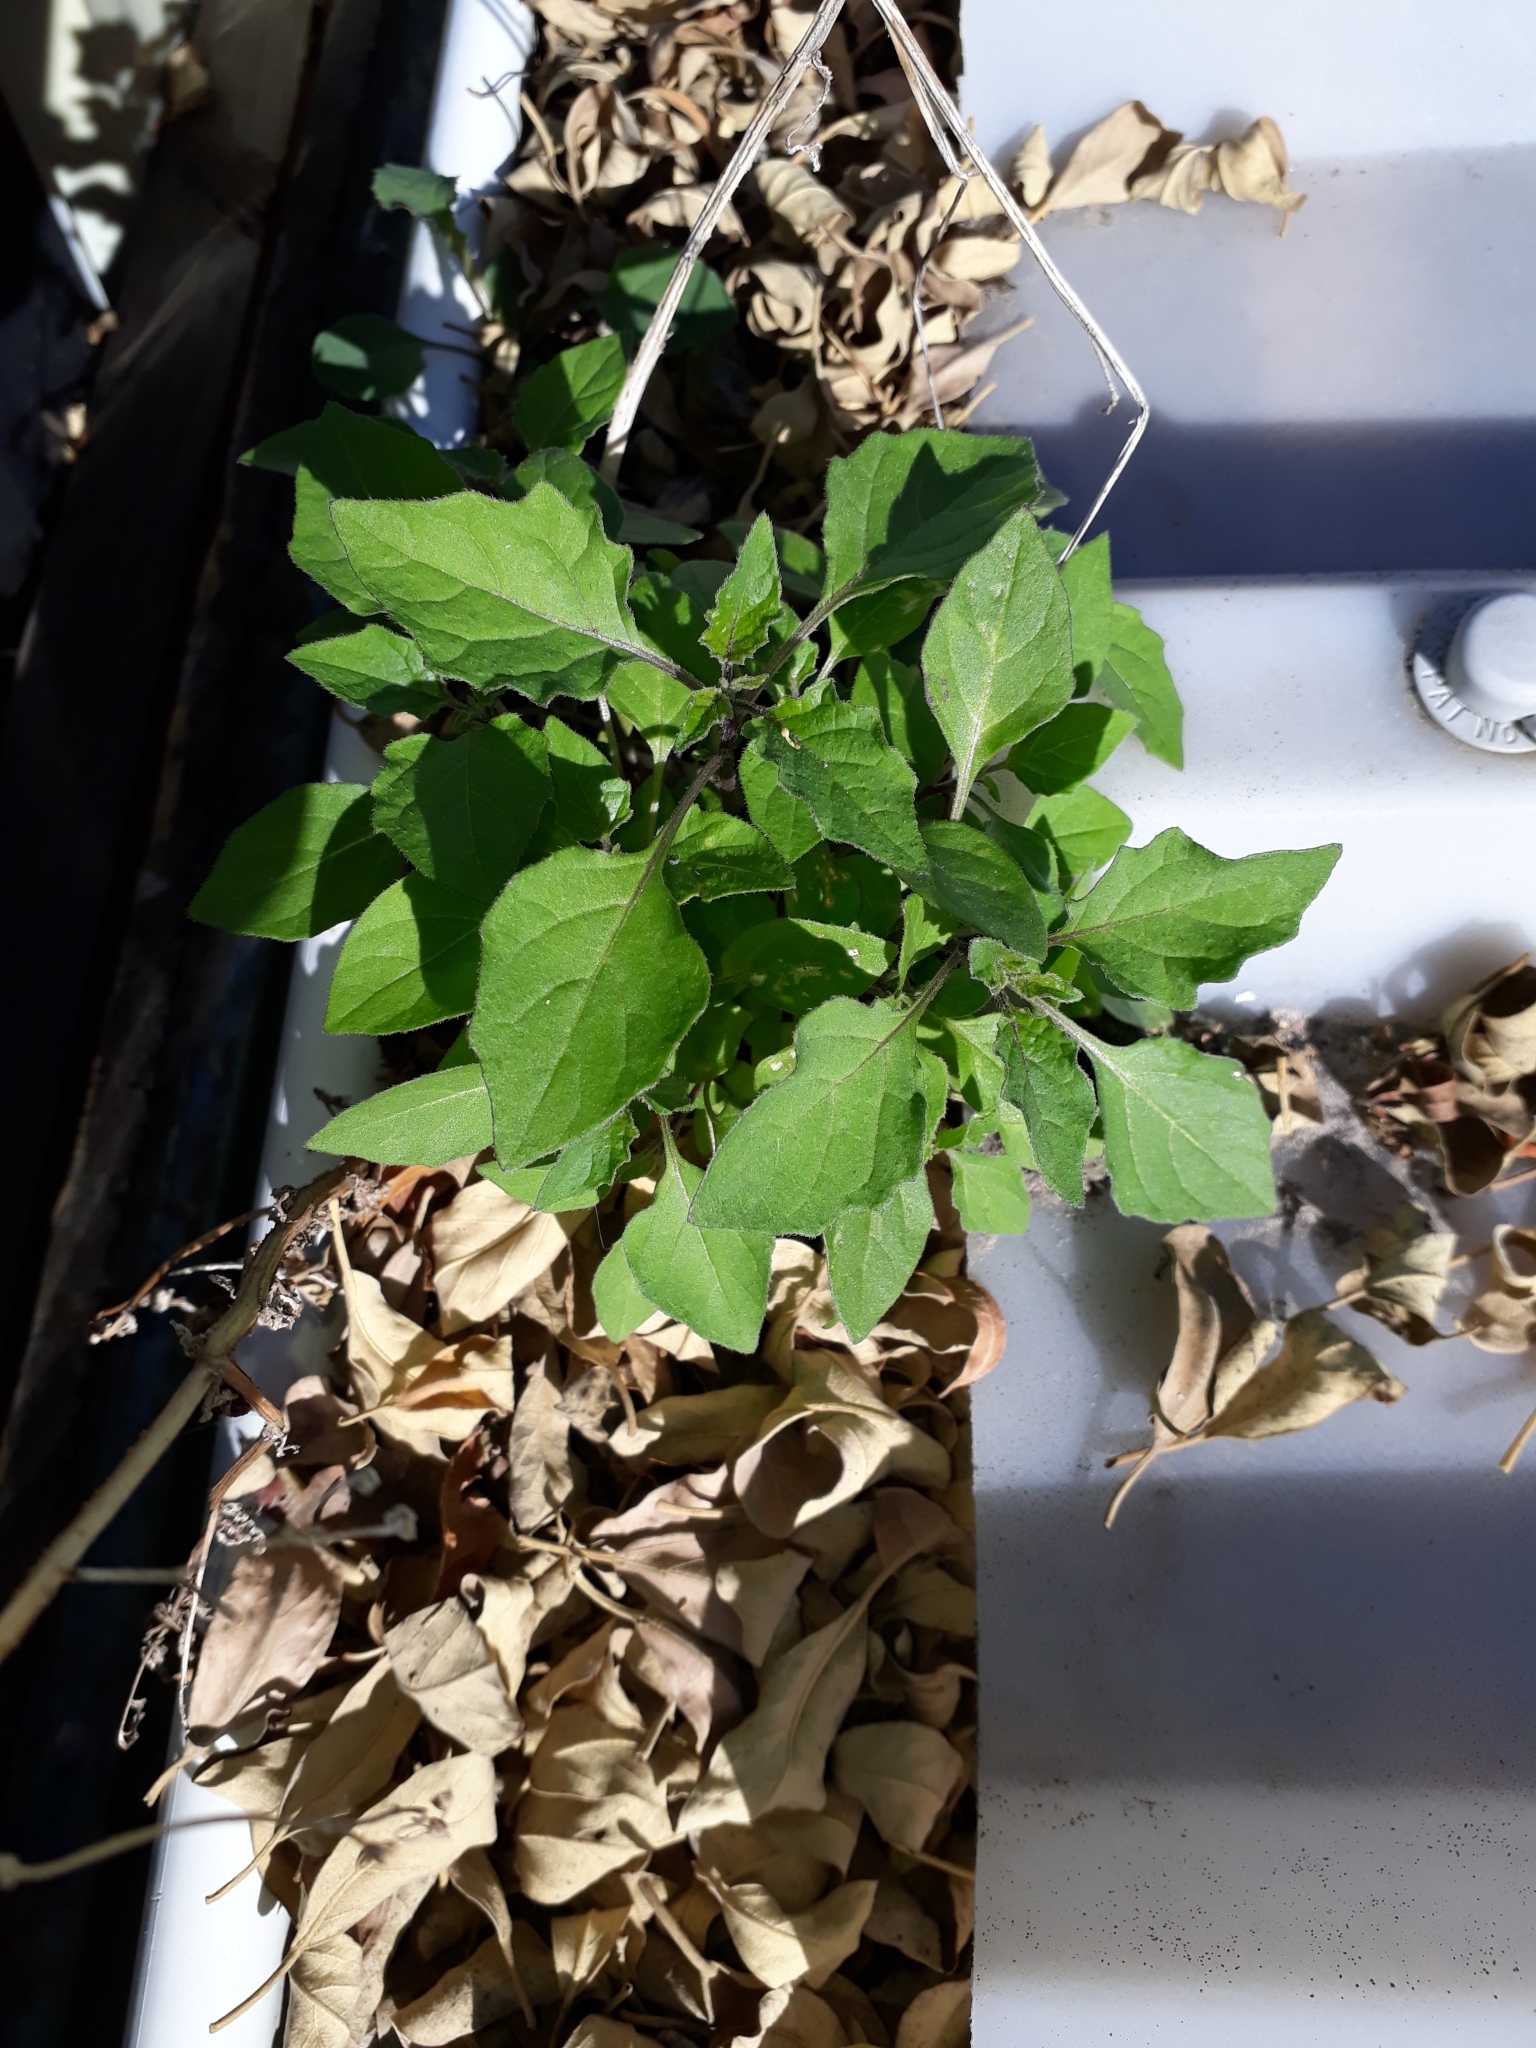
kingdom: Plantae
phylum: Tracheophyta
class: Magnoliopsida
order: Solanales
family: Solanaceae
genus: Solanum
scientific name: Solanum
